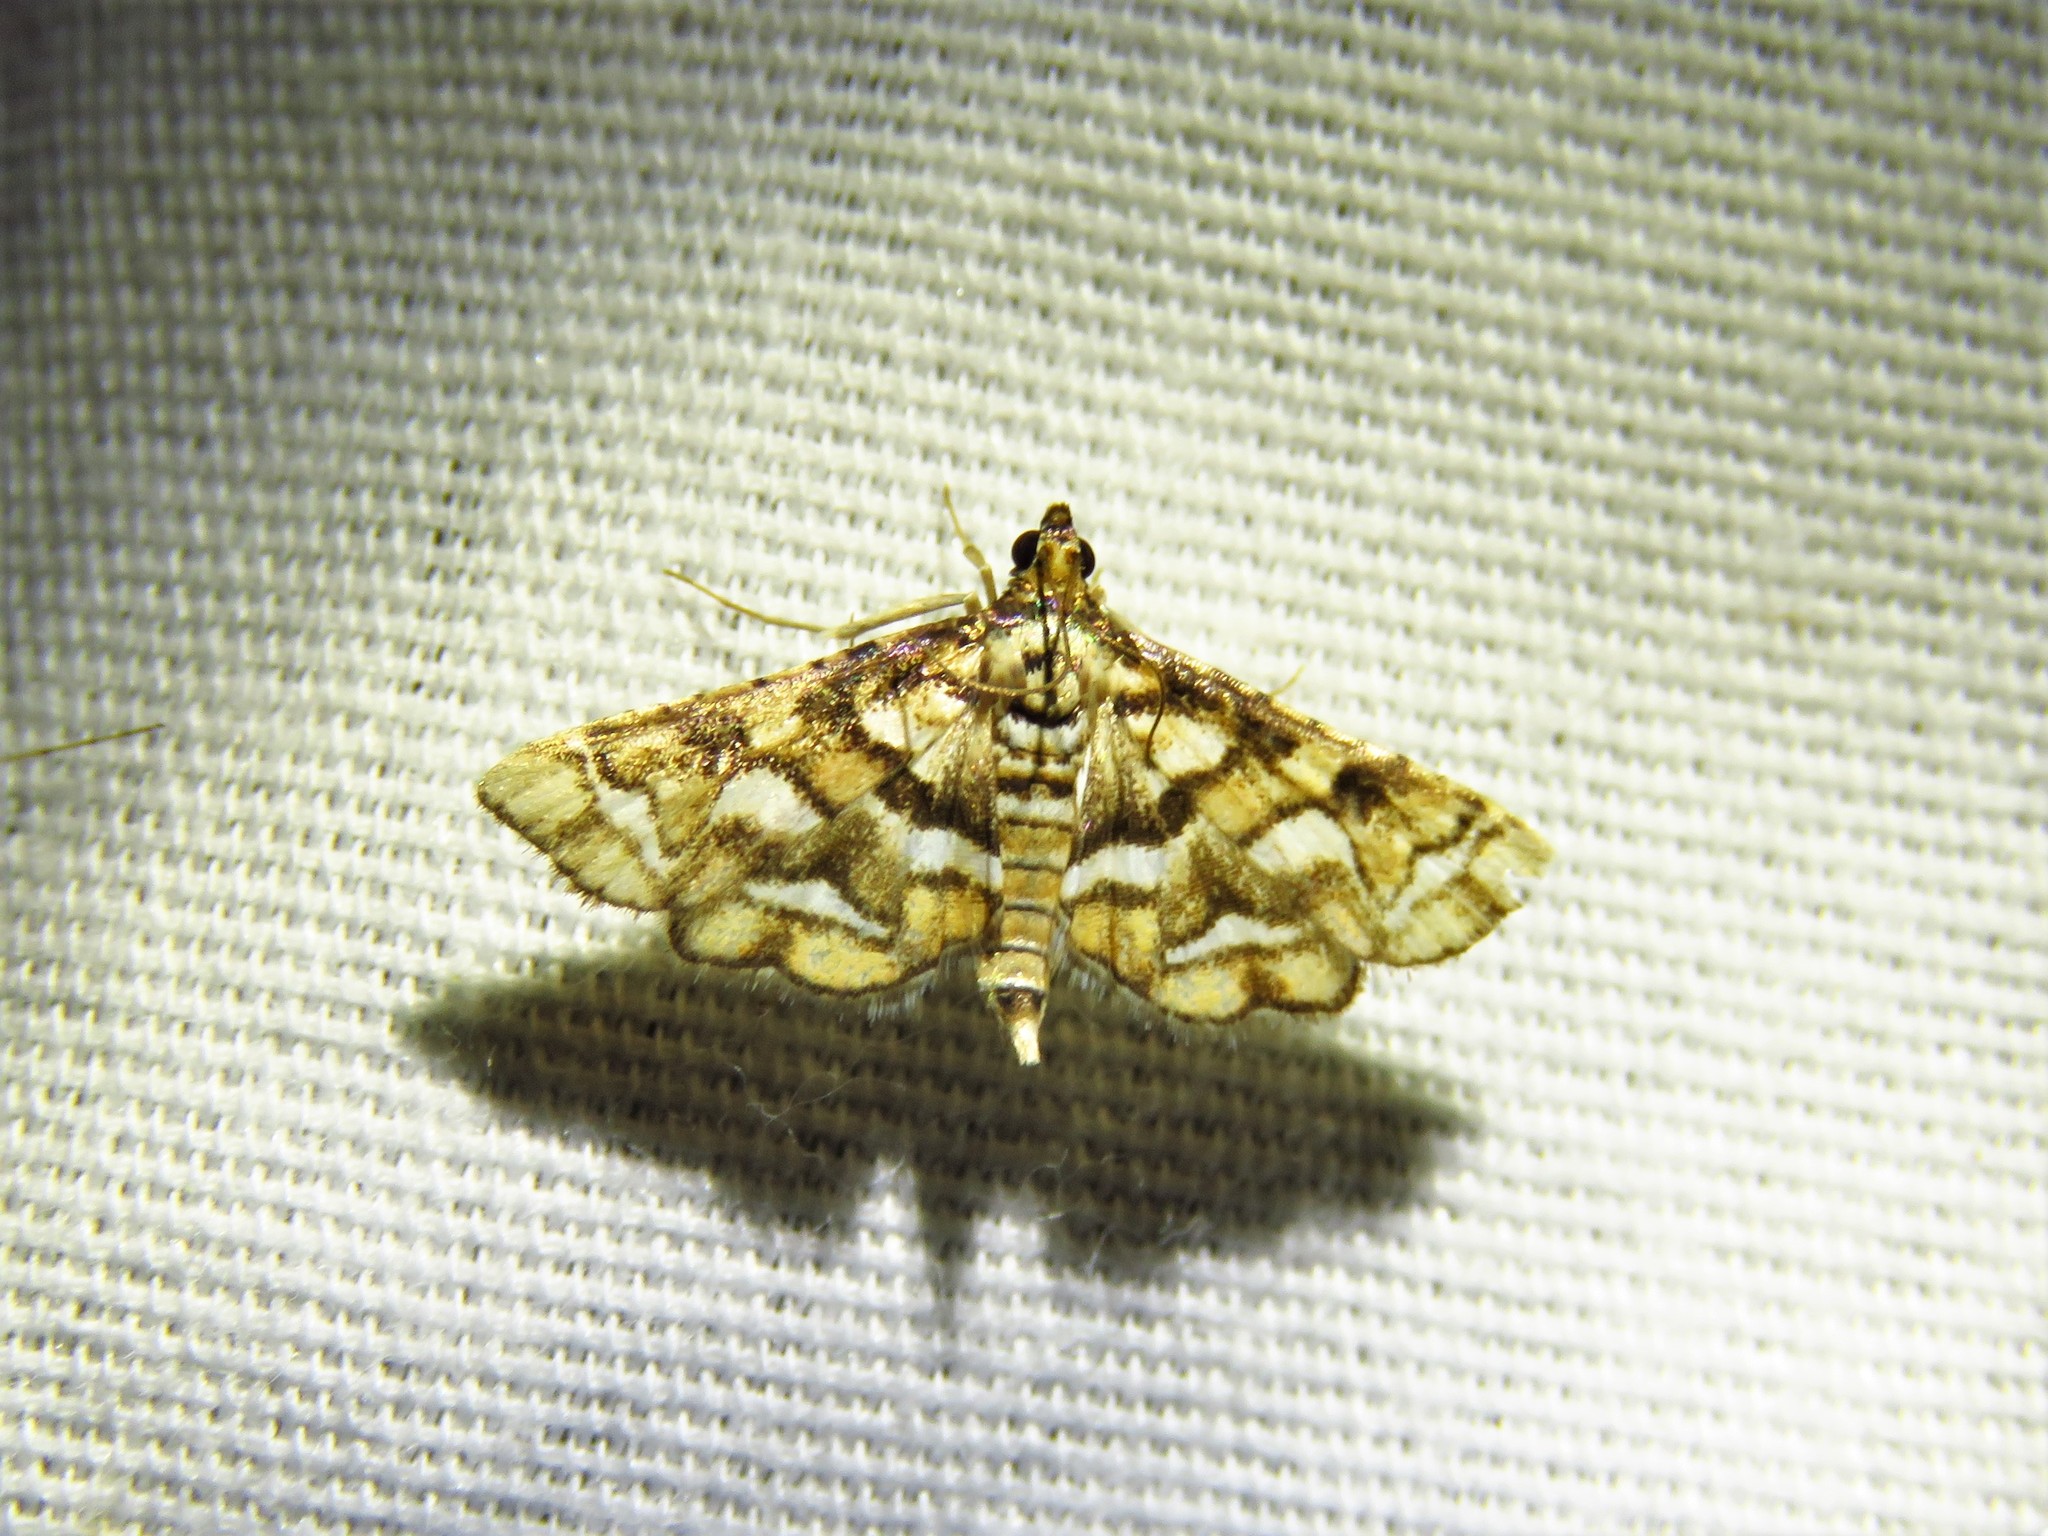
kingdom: Animalia
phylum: Arthropoda
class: Insecta
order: Lepidoptera
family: Crambidae
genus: Hileithia
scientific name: Hileithia magualis
